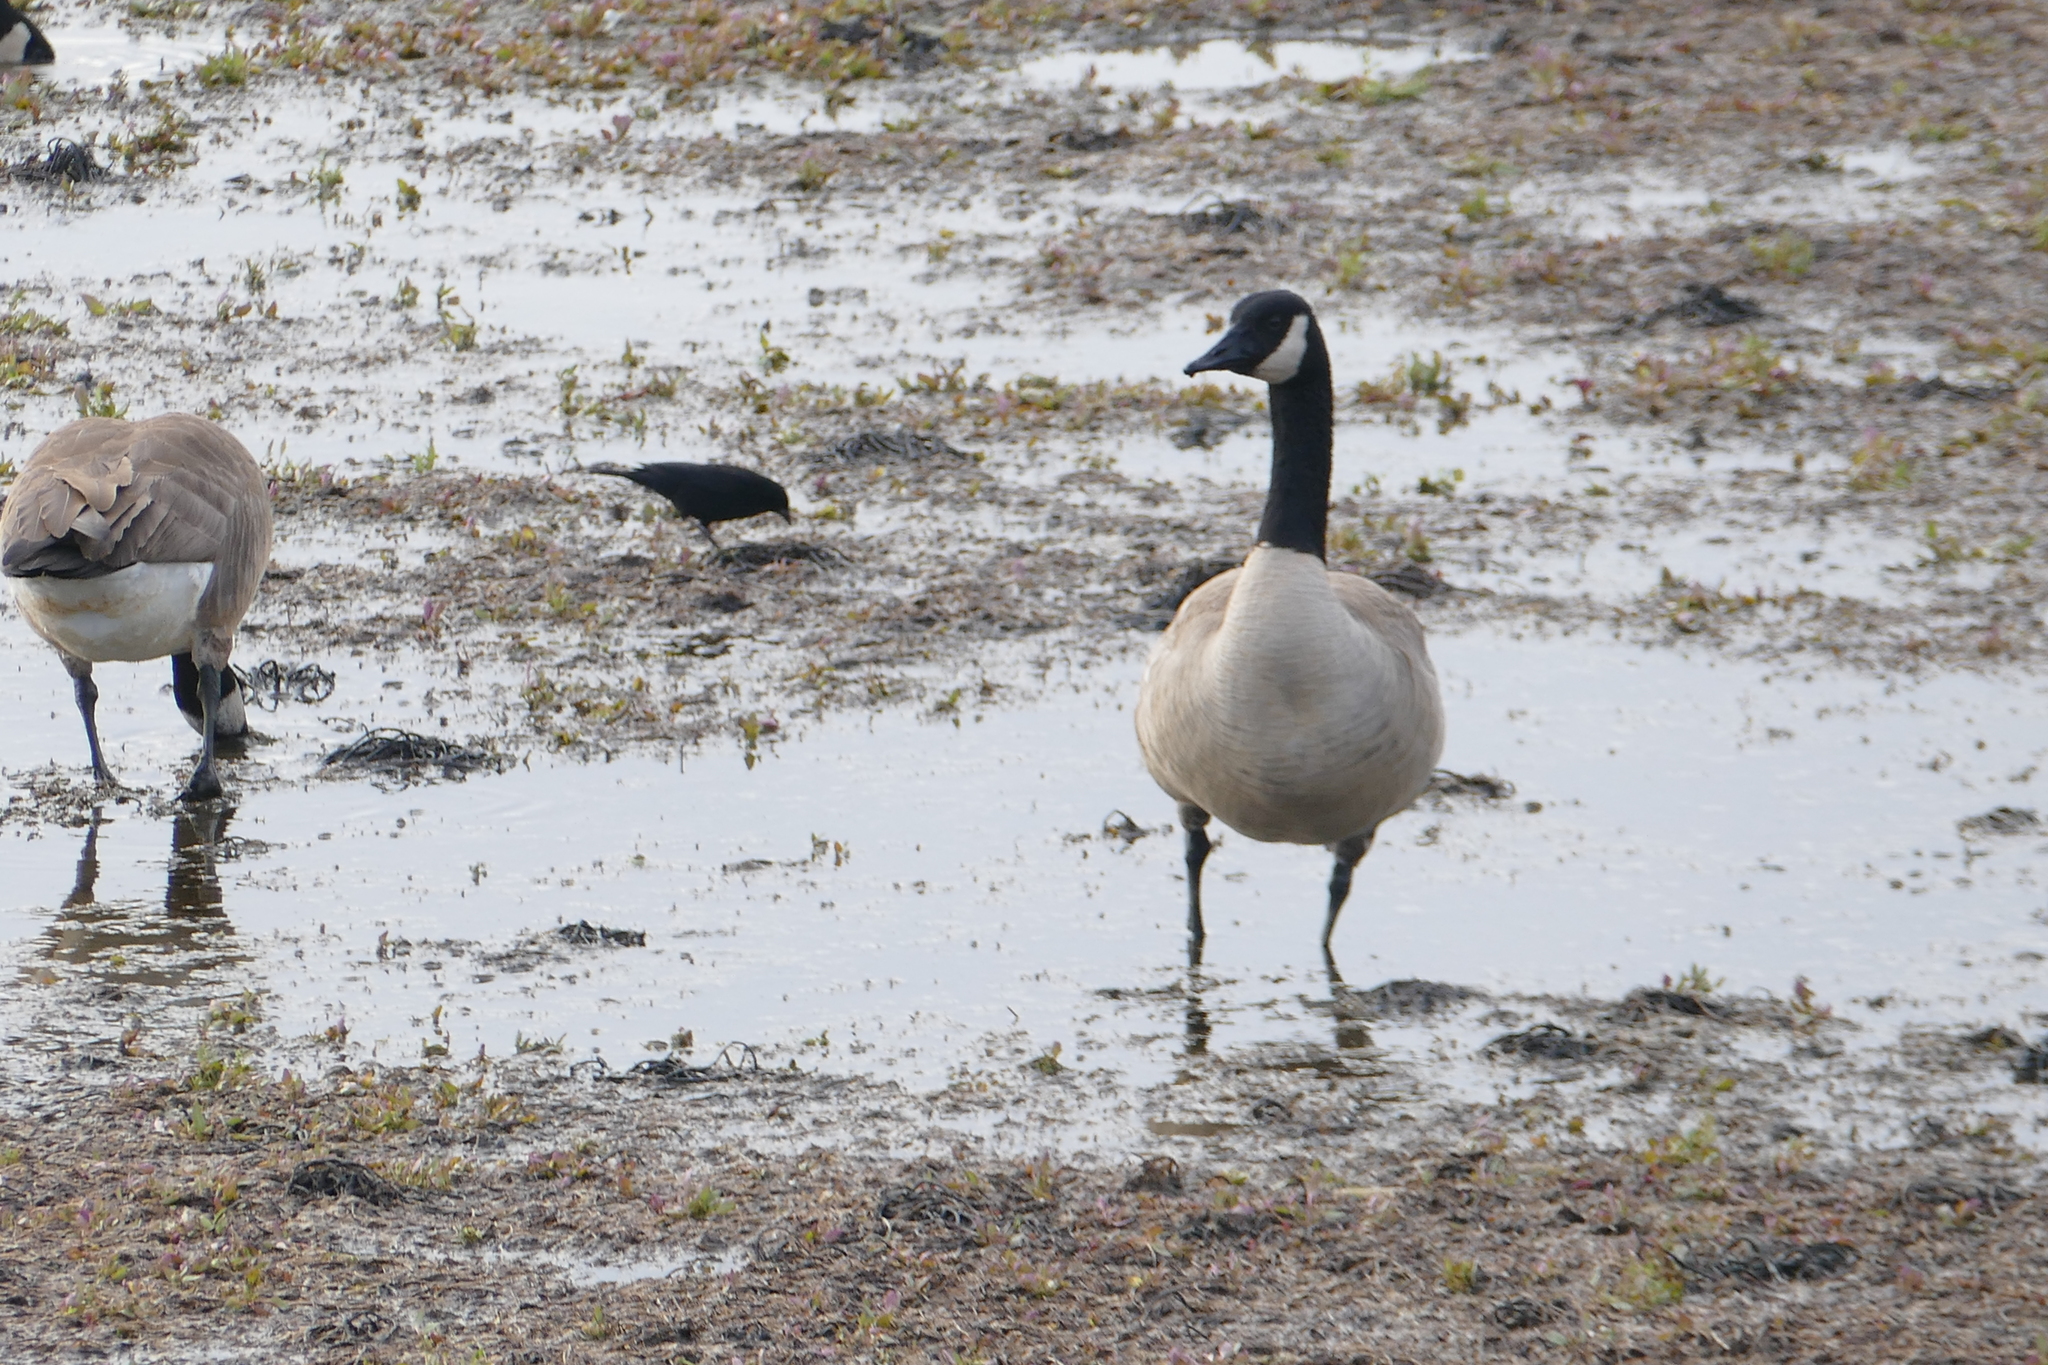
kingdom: Animalia
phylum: Chordata
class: Aves
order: Anseriformes
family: Anatidae
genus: Branta
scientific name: Branta canadensis
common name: Canada goose
